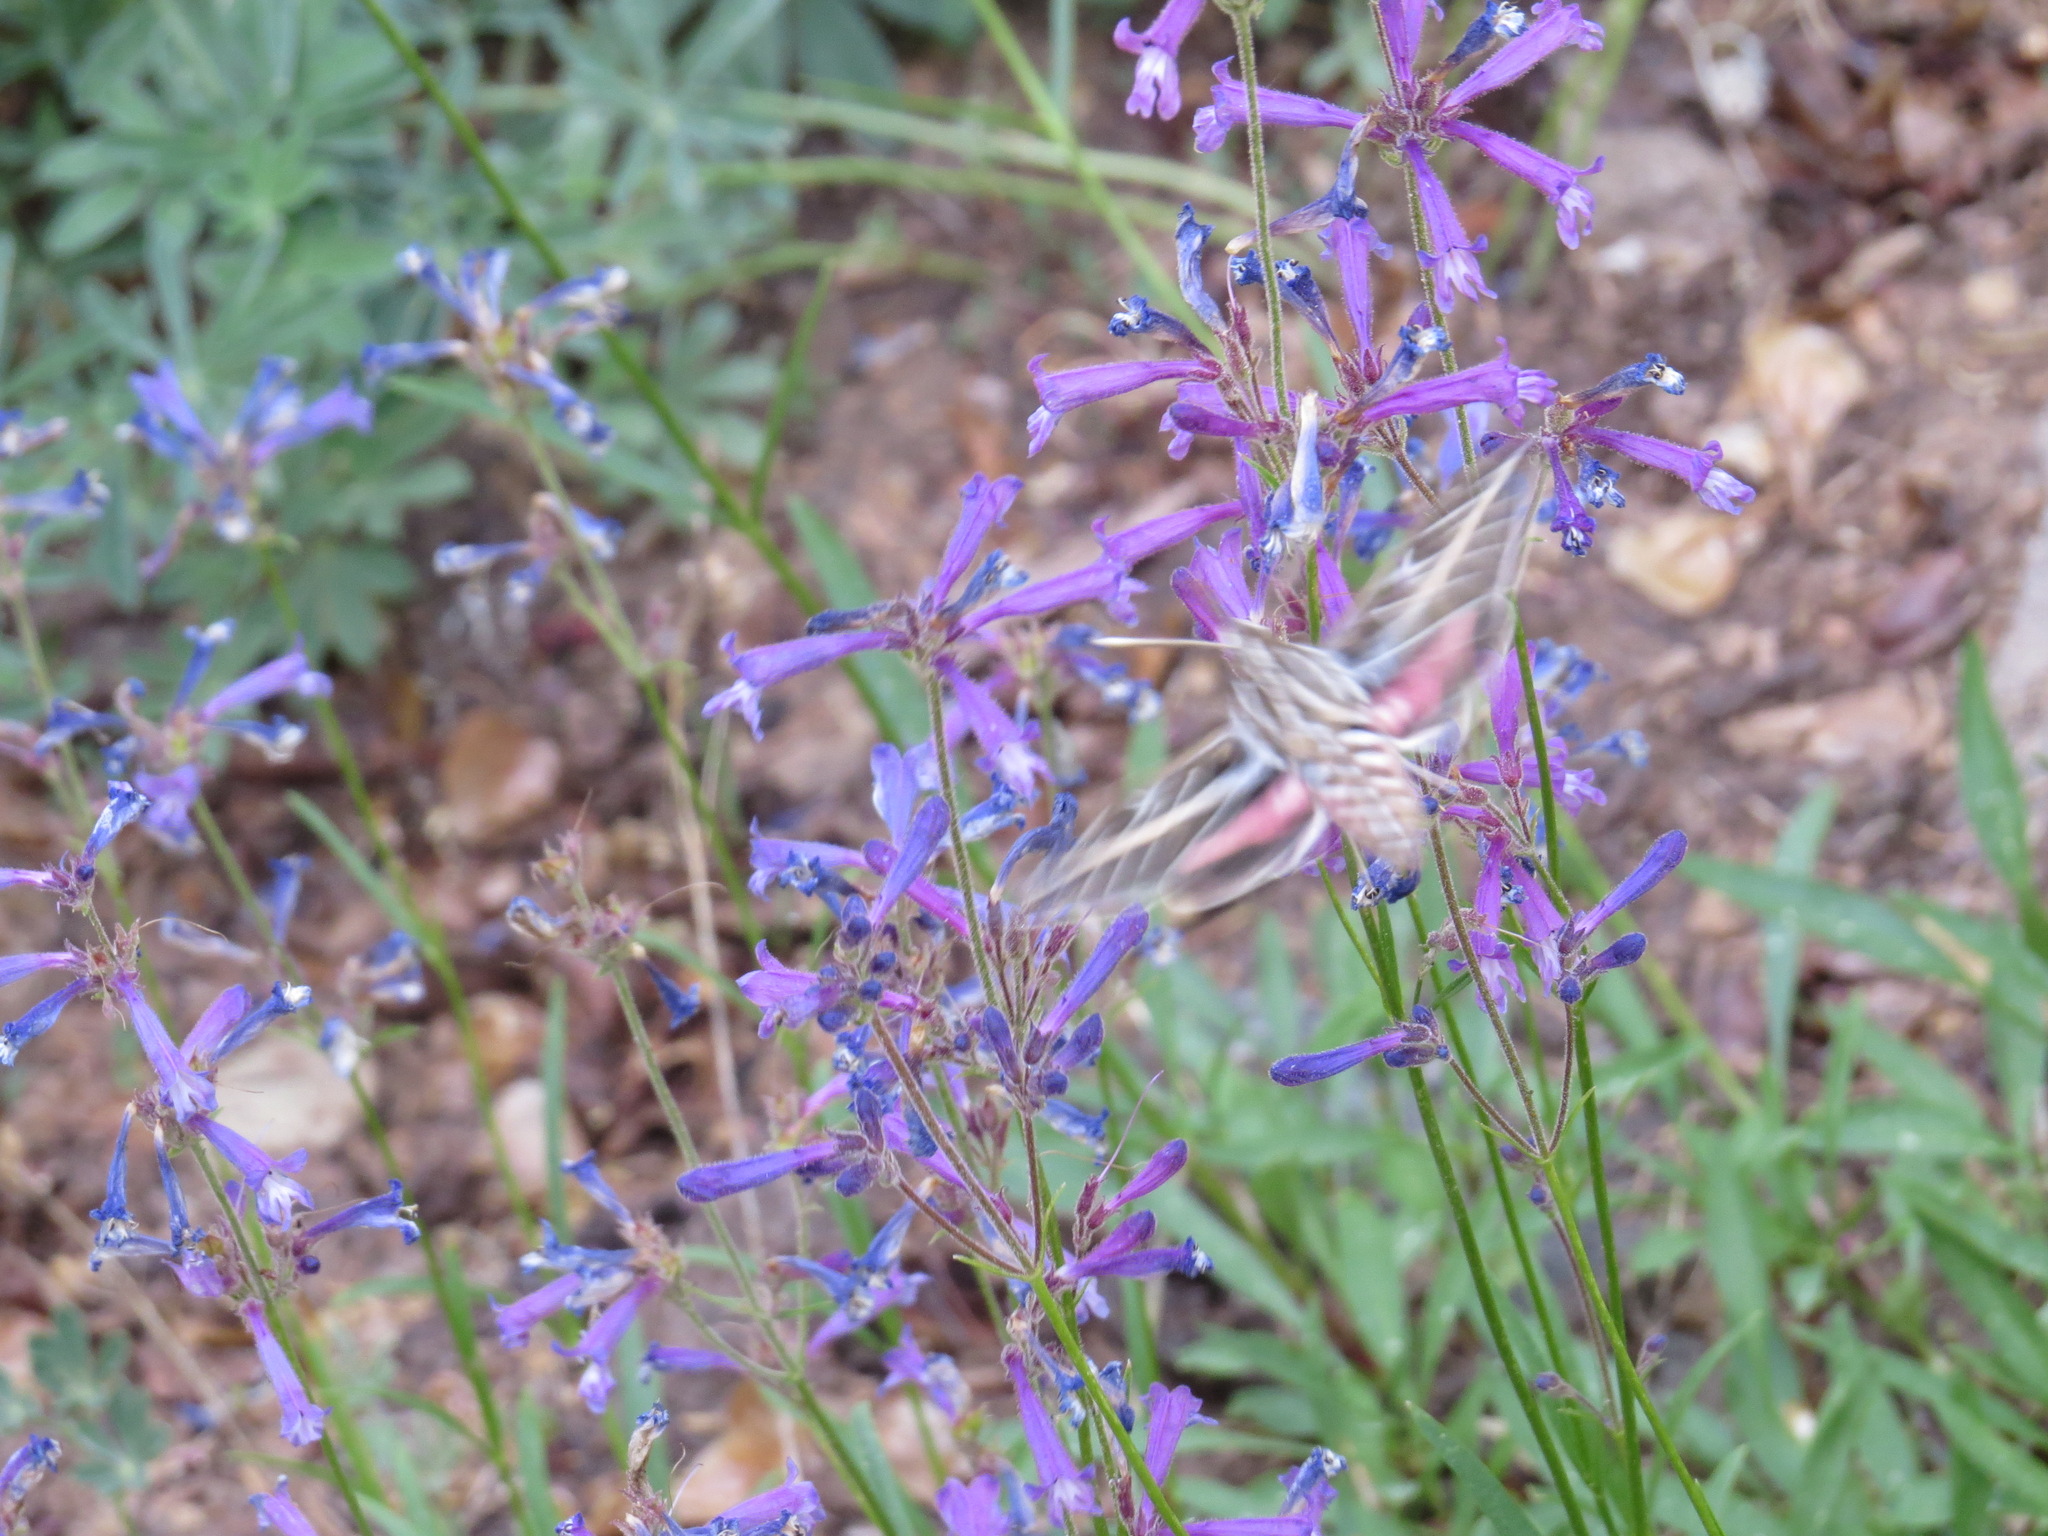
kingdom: Animalia
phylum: Arthropoda
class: Insecta
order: Lepidoptera
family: Sphingidae
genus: Hyles
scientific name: Hyles lineata
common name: White-lined sphinx
